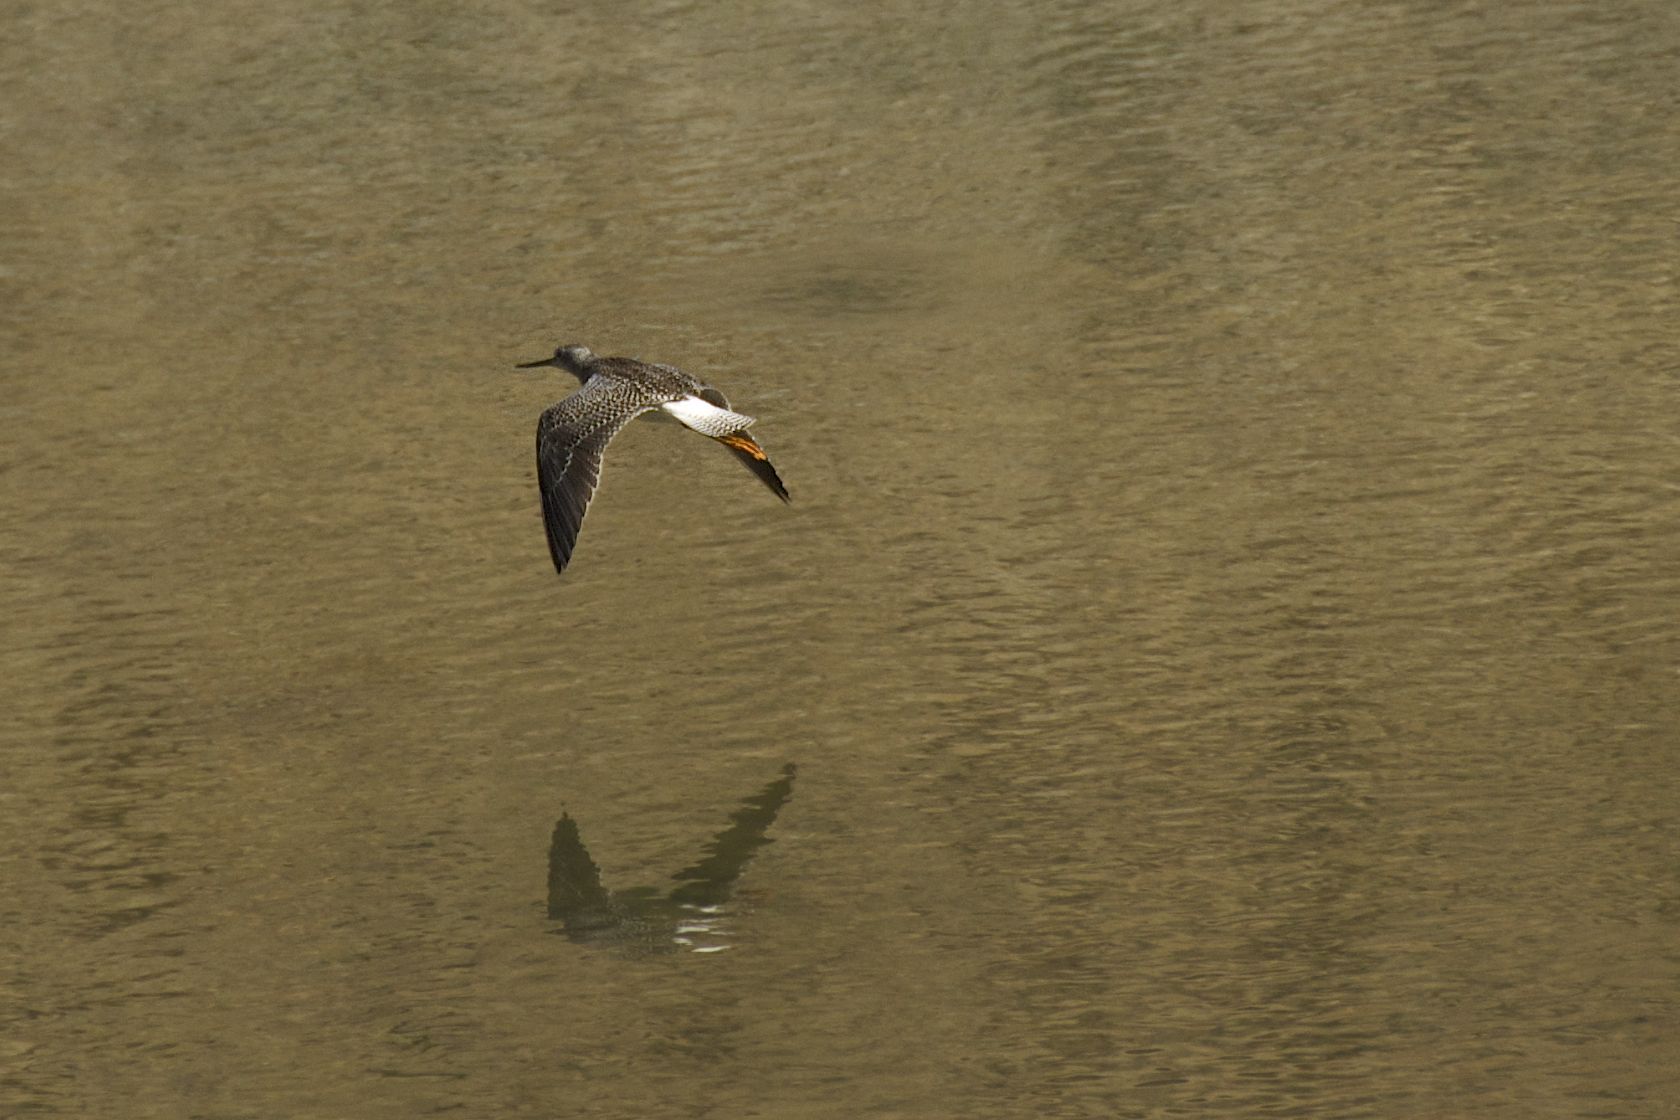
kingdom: Animalia
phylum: Chordata
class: Aves
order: Charadriiformes
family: Scolopacidae
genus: Tringa
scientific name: Tringa melanoleuca
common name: Greater yellowlegs
